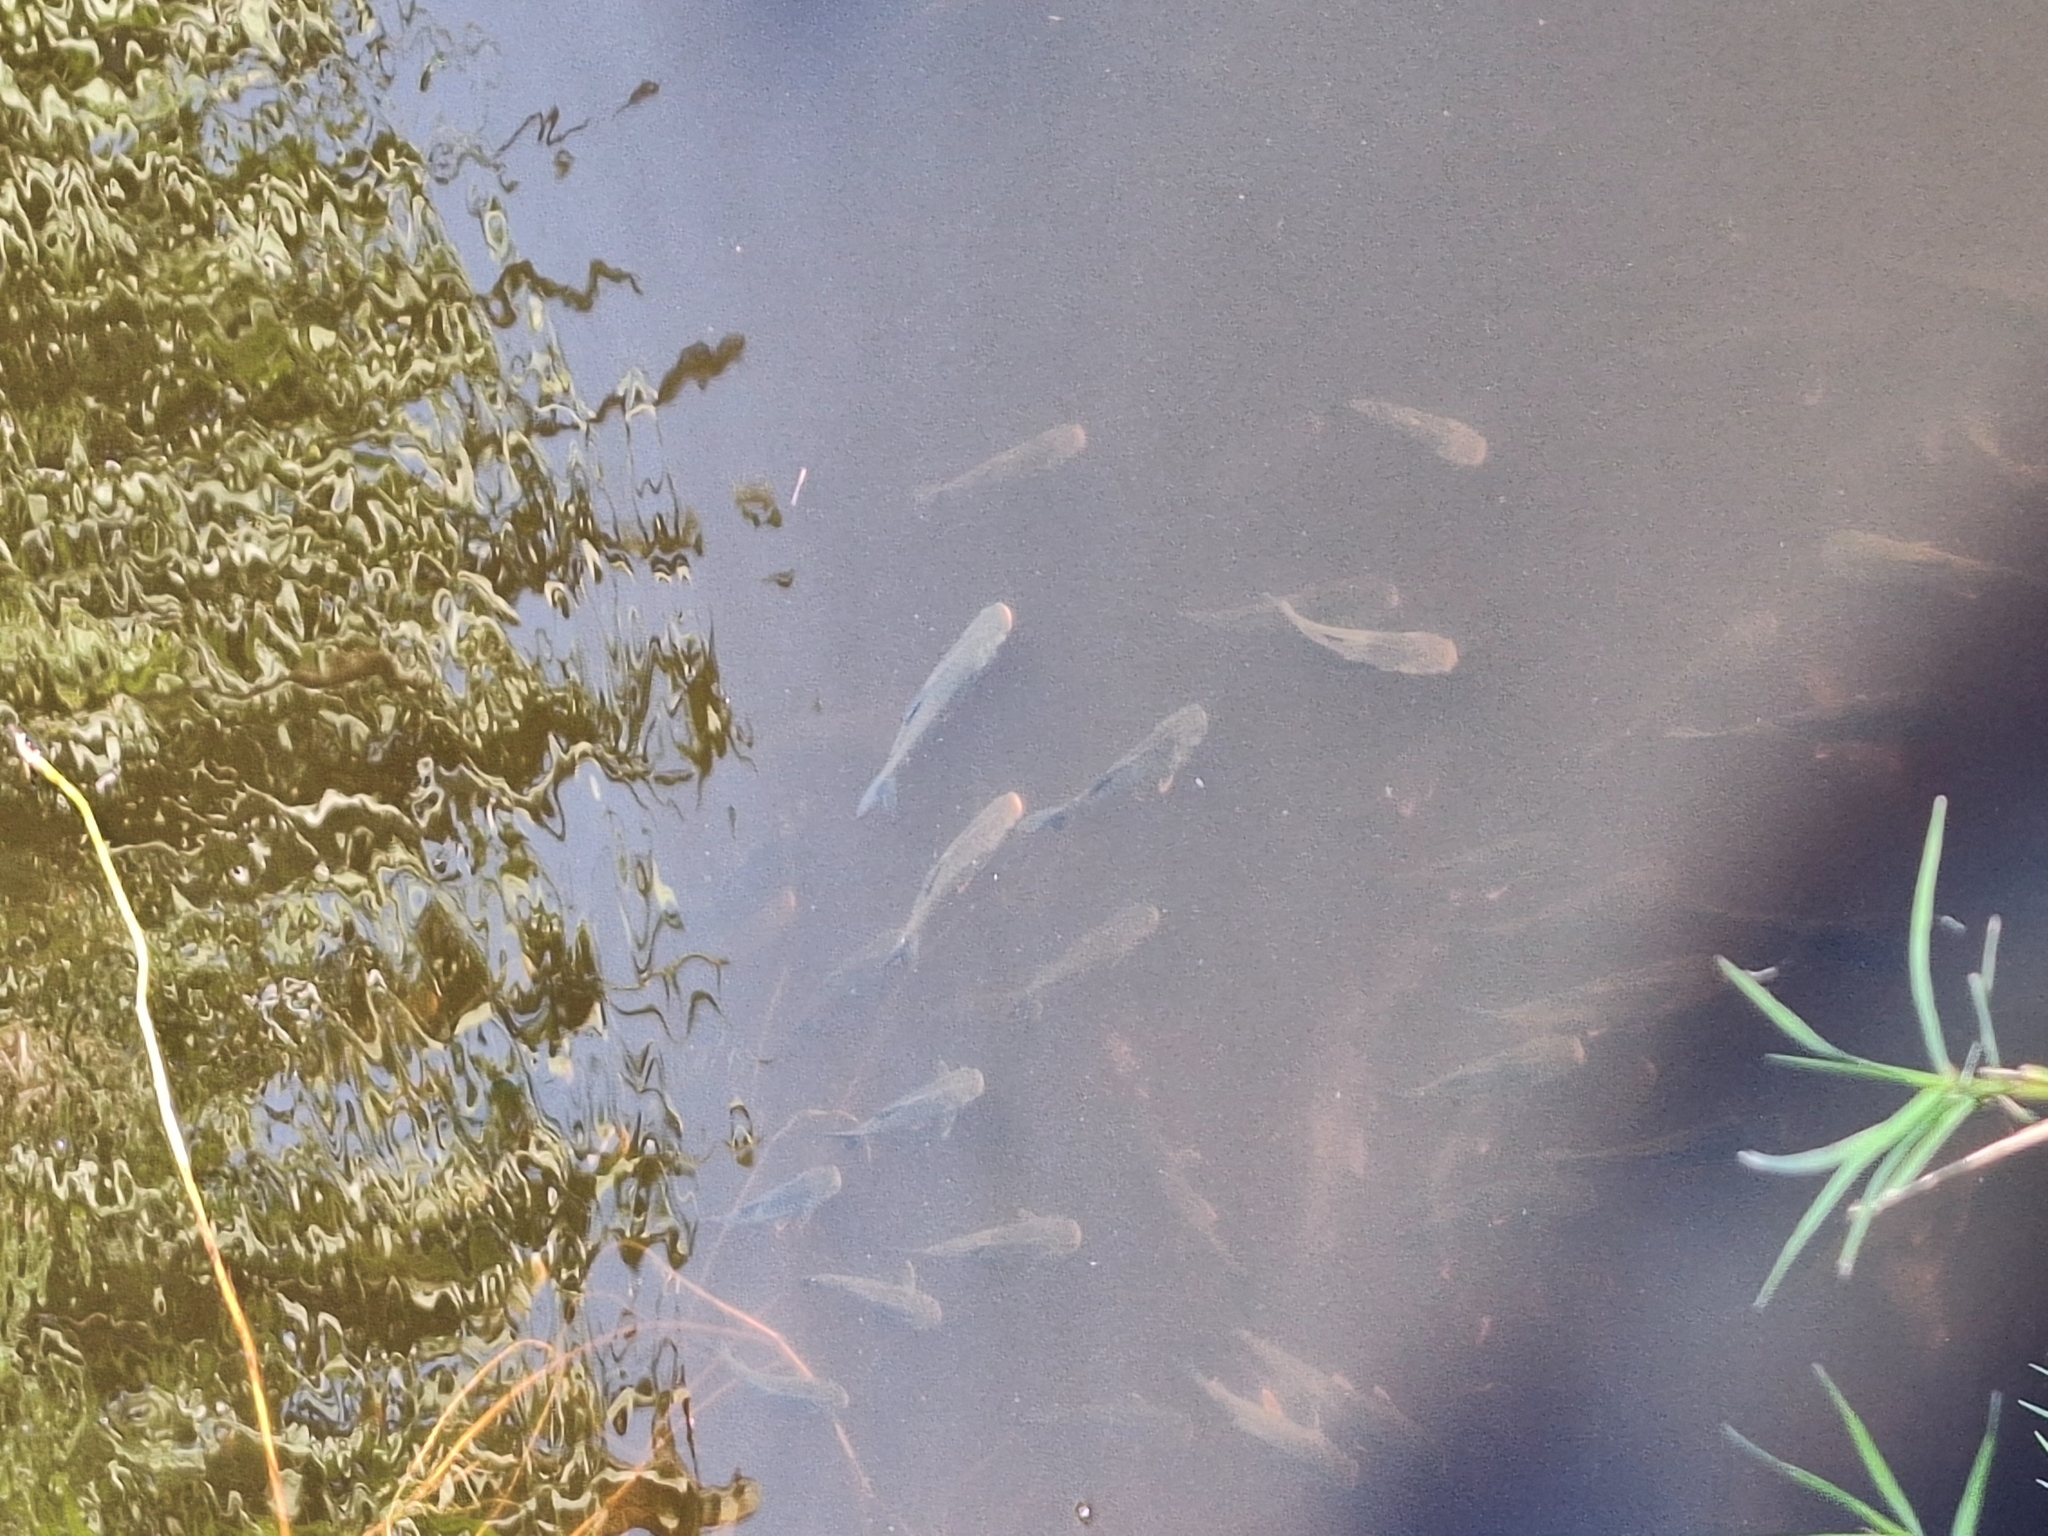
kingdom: Animalia
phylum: Chordata
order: Characiformes
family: Prochilodontidae
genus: Prochilodus
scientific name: Prochilodus lineatus
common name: Curimbata
